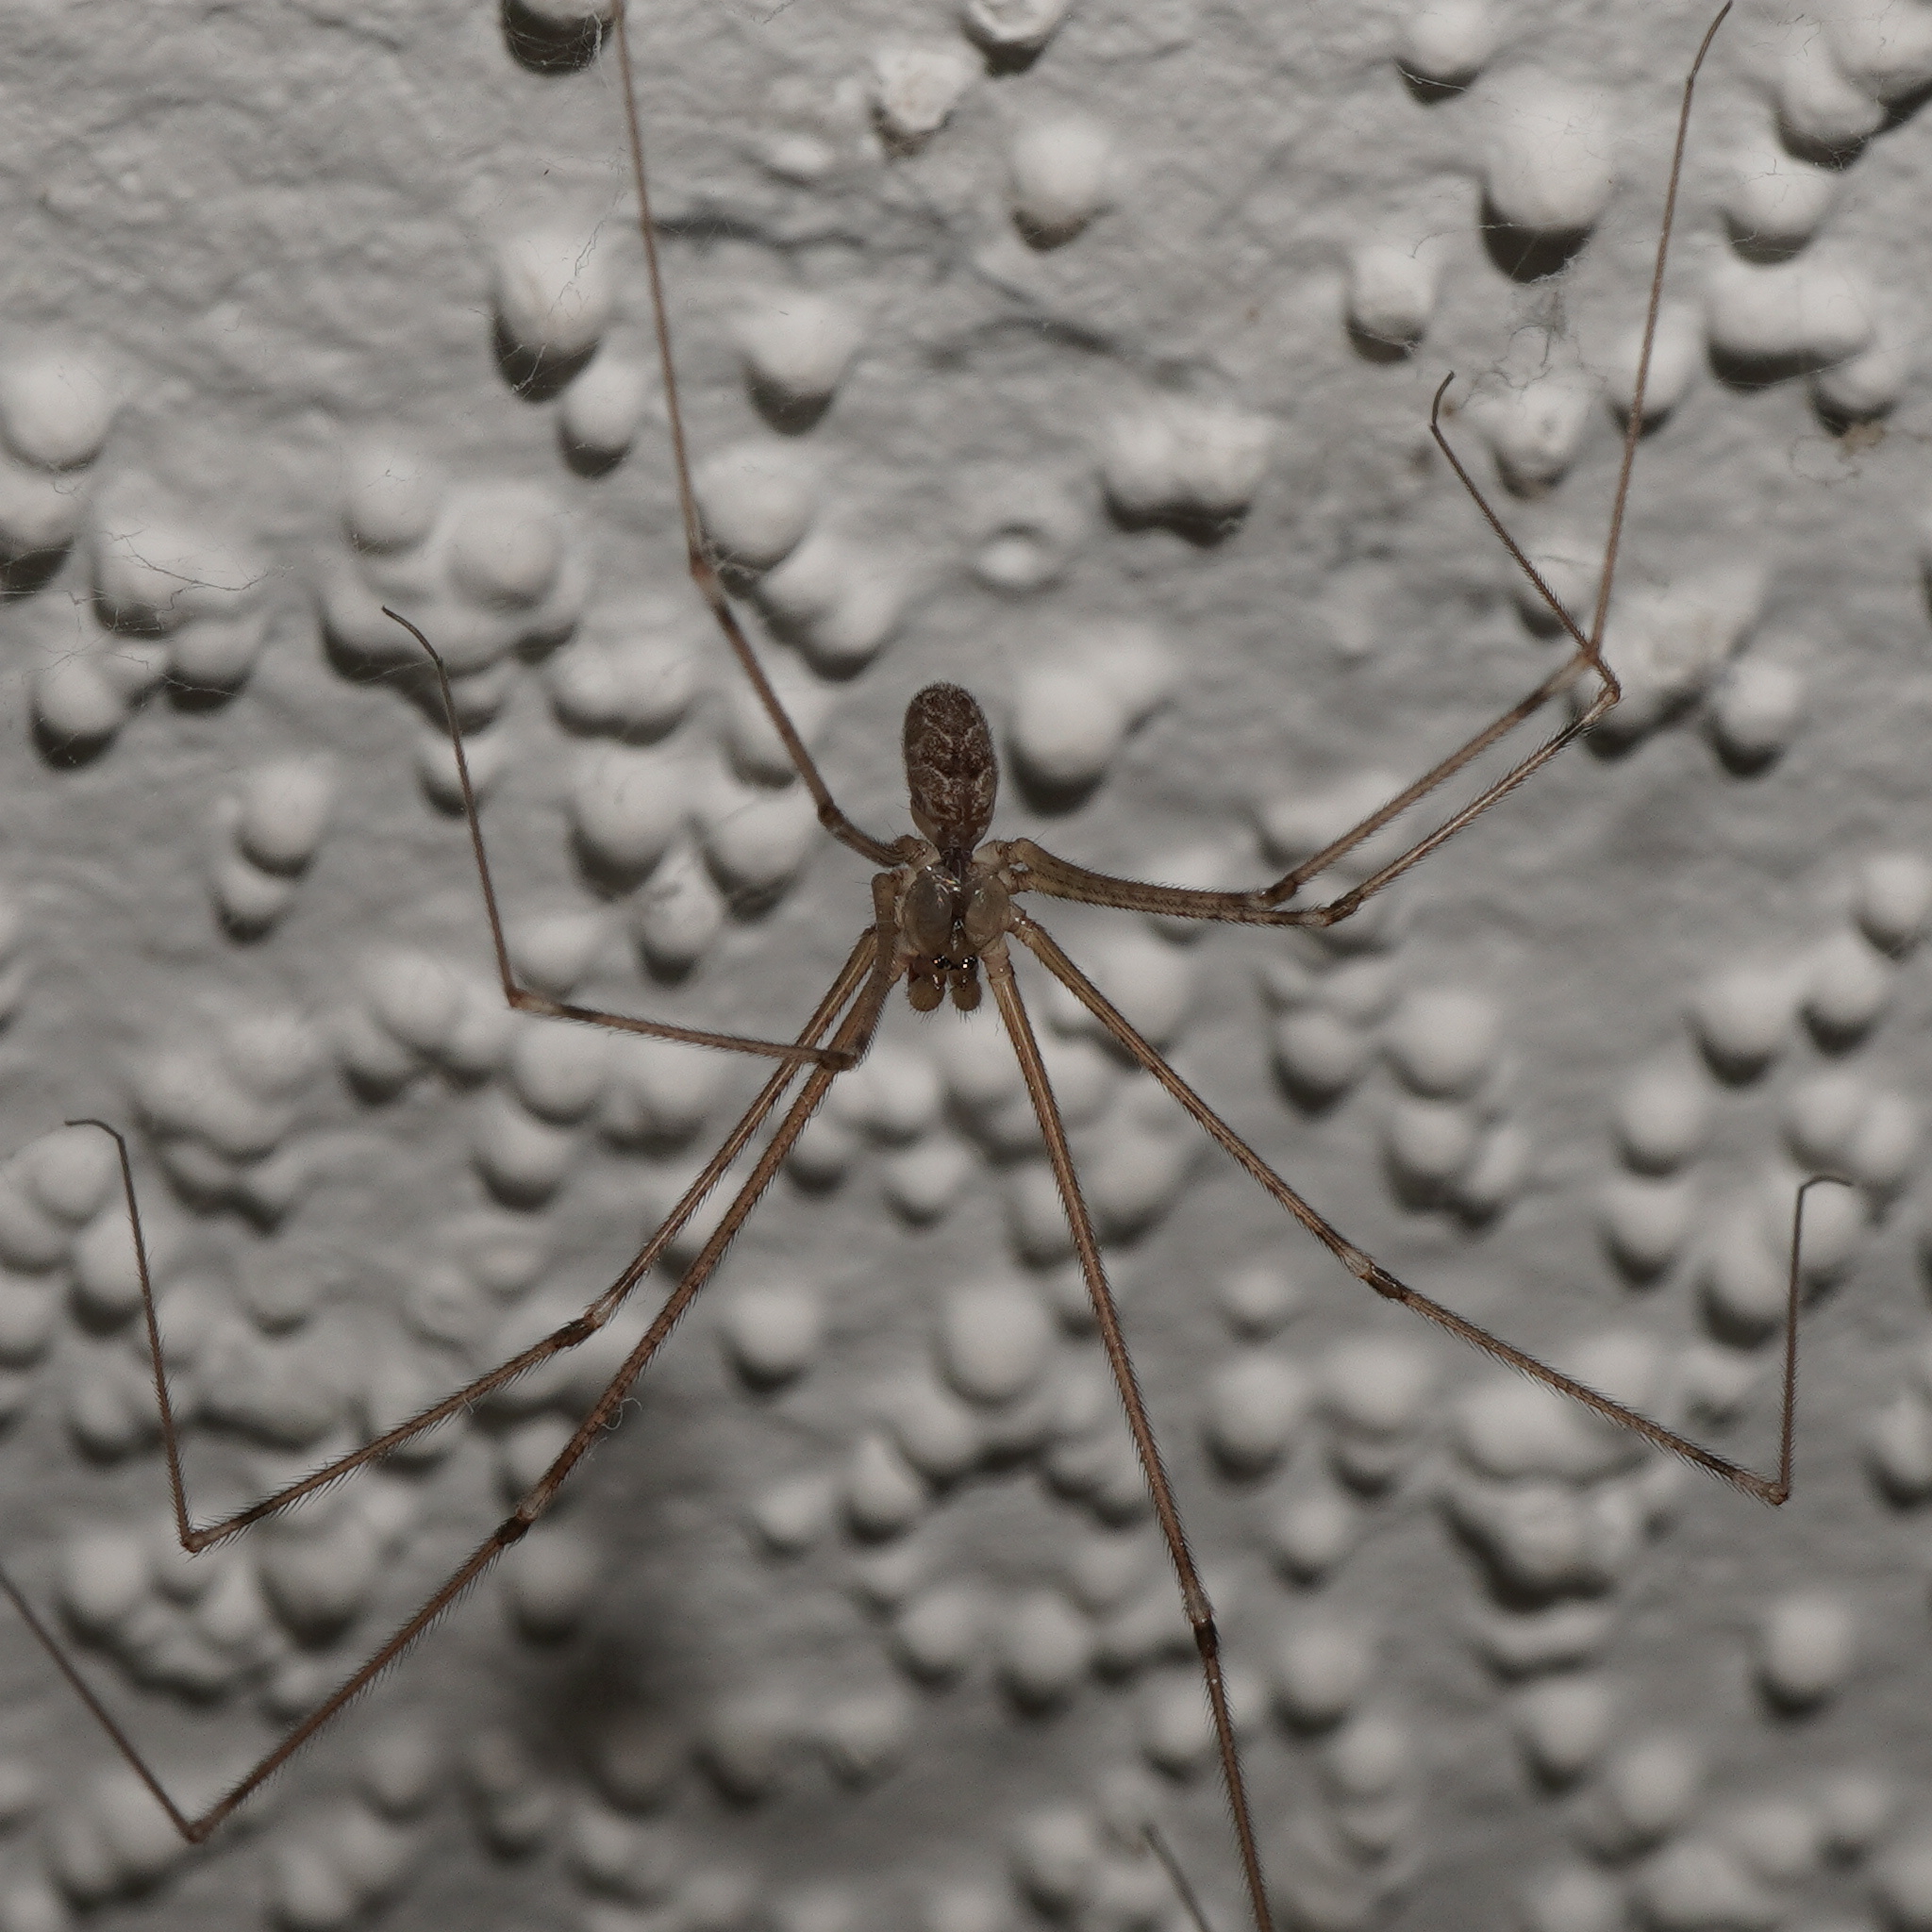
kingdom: Animalia
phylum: Arthropoda
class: Arachnida
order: Araneae
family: Pholcidae
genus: Holocnemus
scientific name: Holocnemus pluchei
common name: Marbled cellar spider
